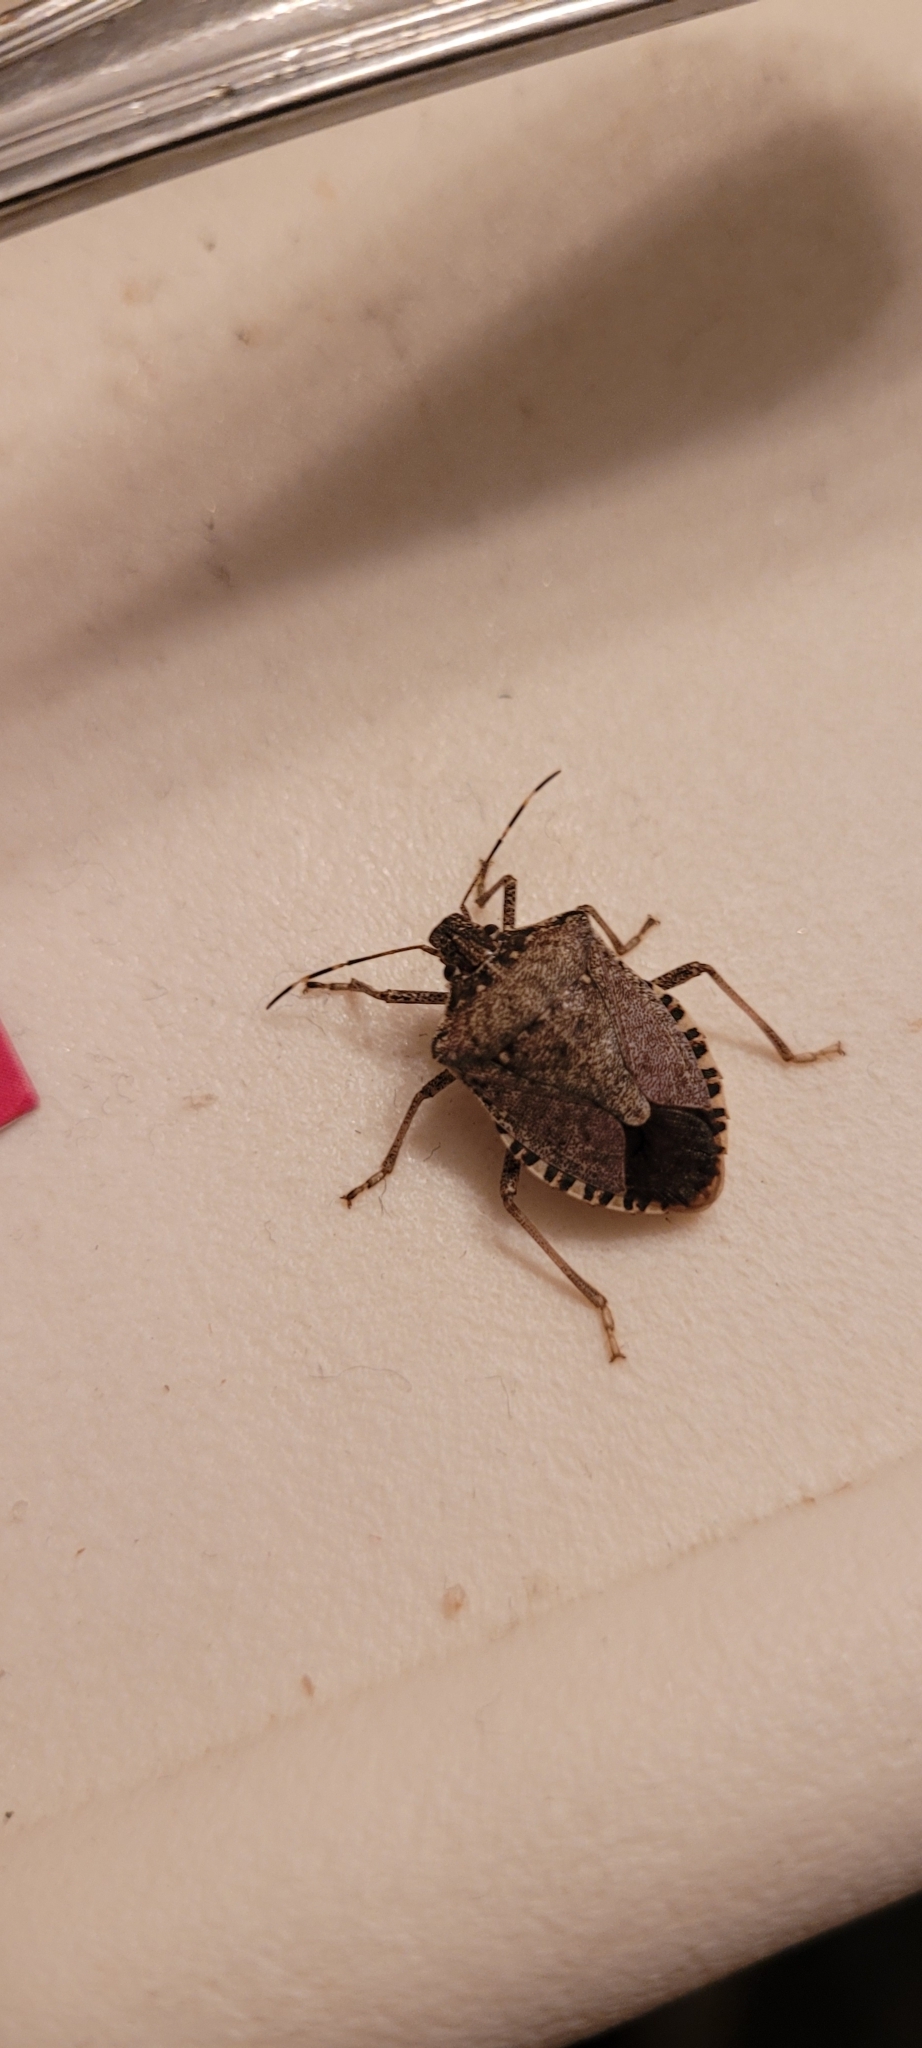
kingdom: Animalia
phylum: Arthropoda
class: Insecta
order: Hemiptera
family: Pentatomidae
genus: Halyomorpha
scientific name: Halyomorpha halys
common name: Brown marmorated stink bug
